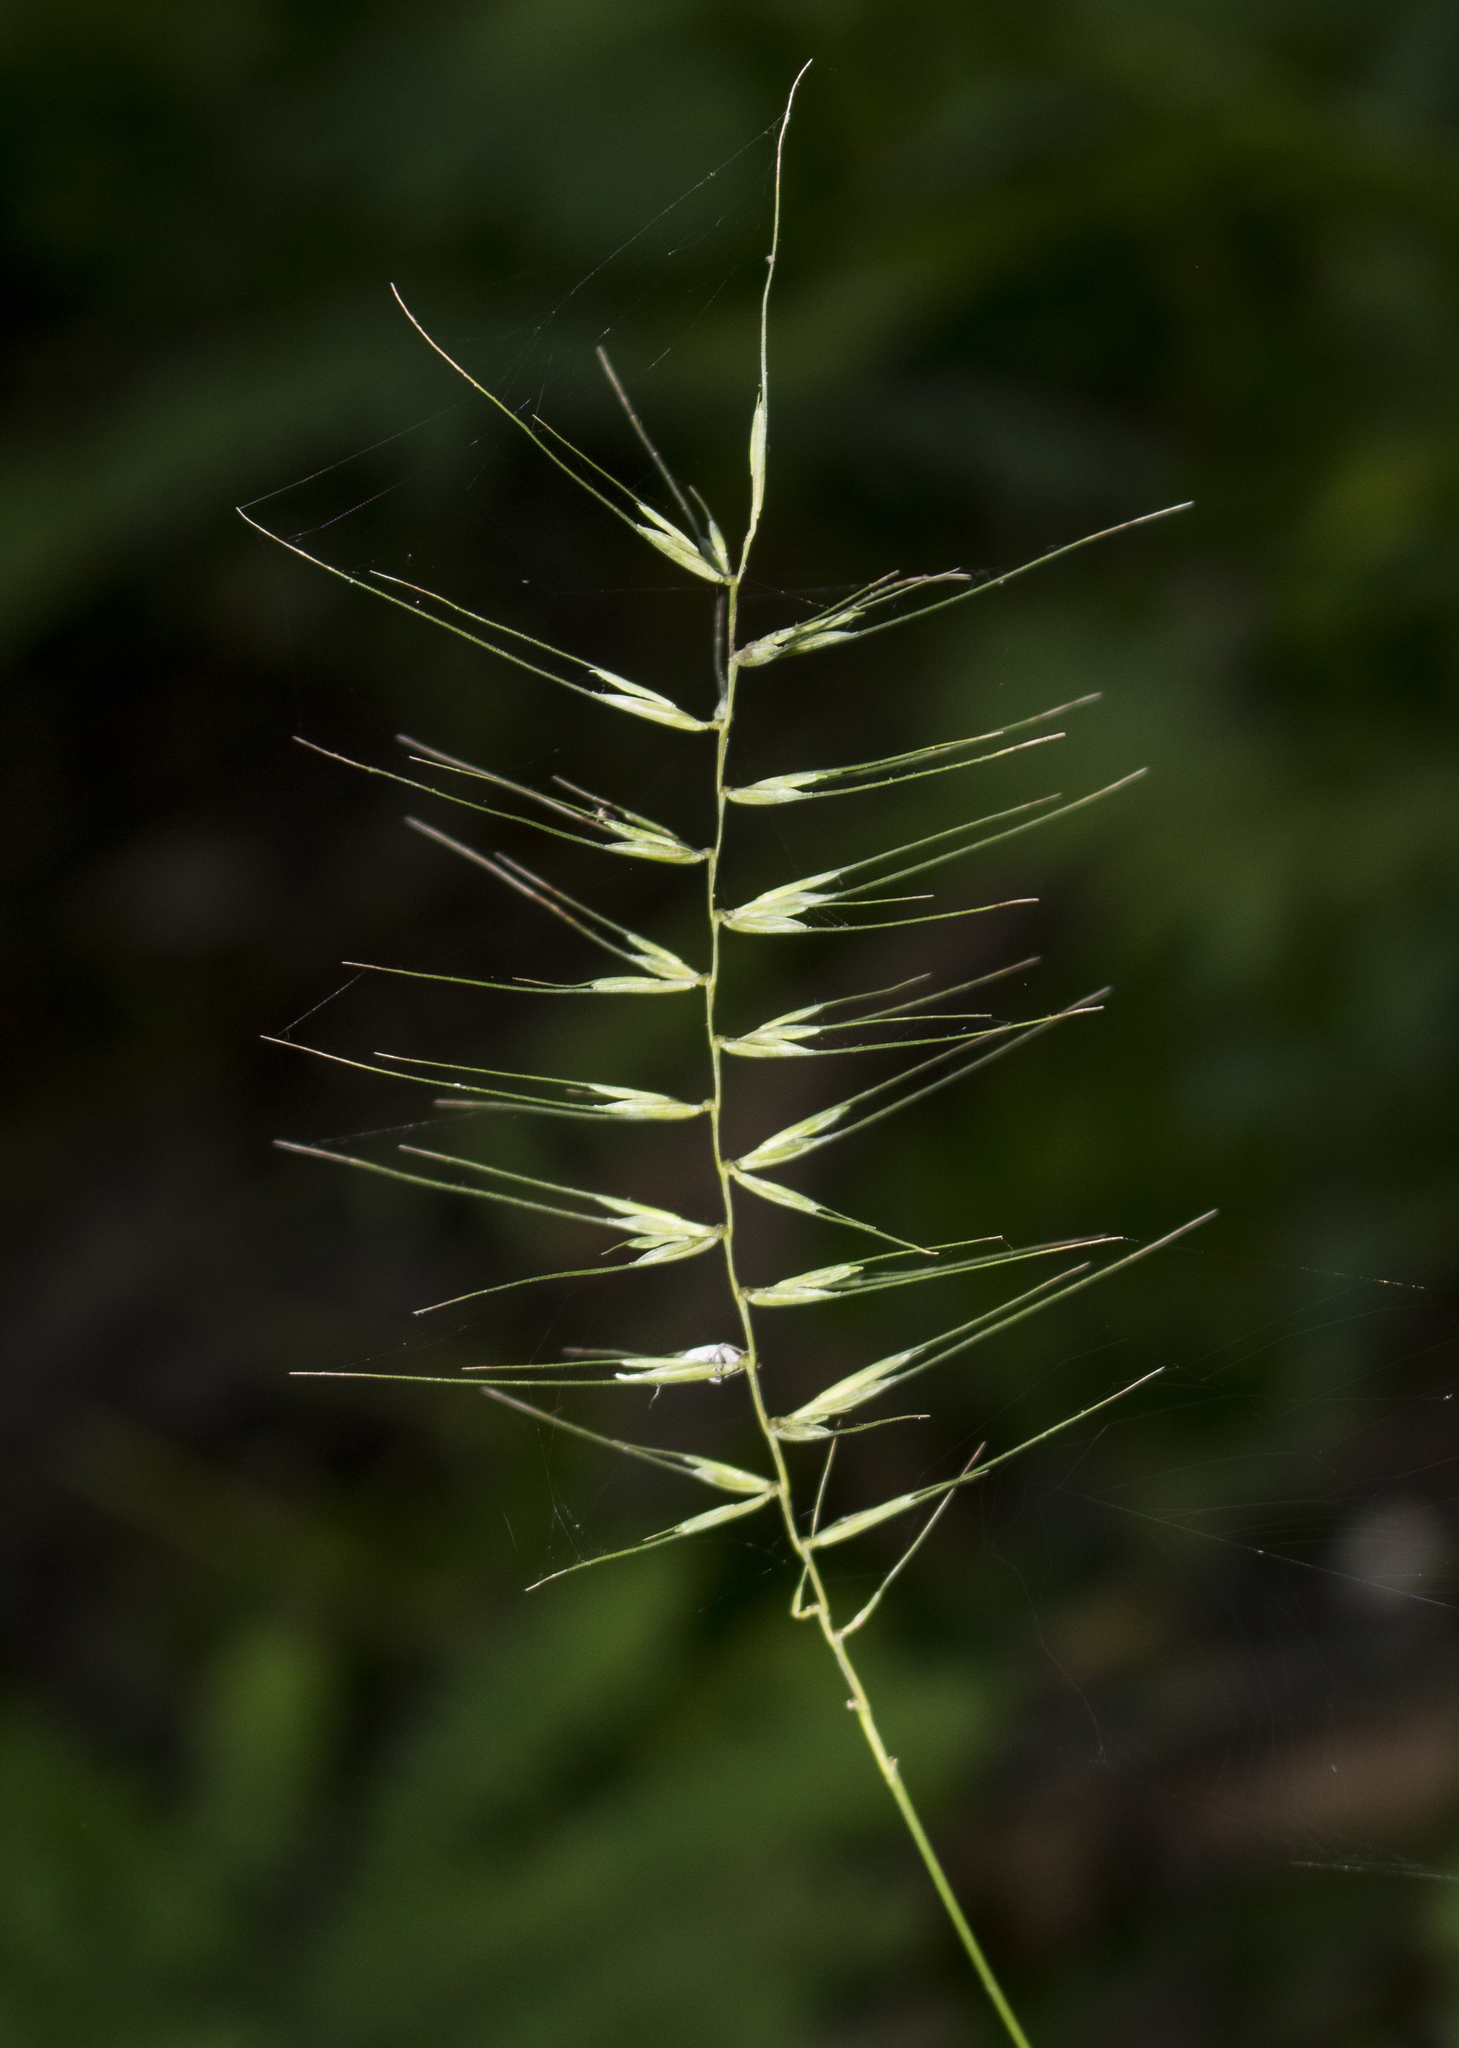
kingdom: Plantae
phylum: Tracheophyta
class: Liliopsida
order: Poales
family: Poaceae
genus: Elymus
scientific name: Elymus hystrix
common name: Bottlebrush grass
